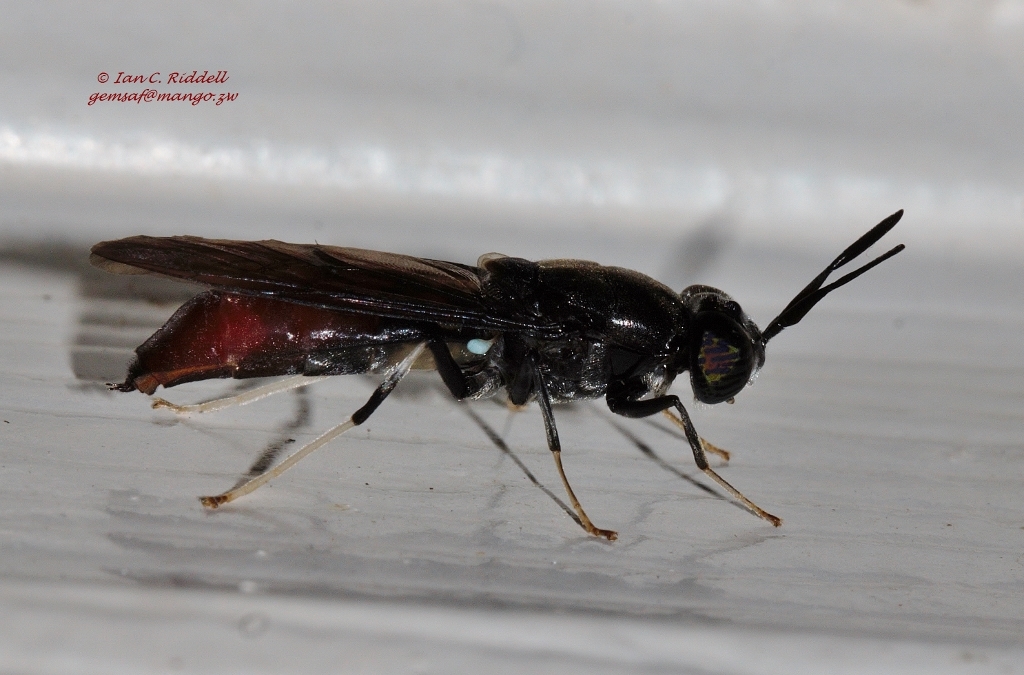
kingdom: Animalia
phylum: Arthropoda
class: Insecta
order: Diptera
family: Stratiomyidae
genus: Hermetia
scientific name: Hermetia illucens
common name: Black soldier fly
